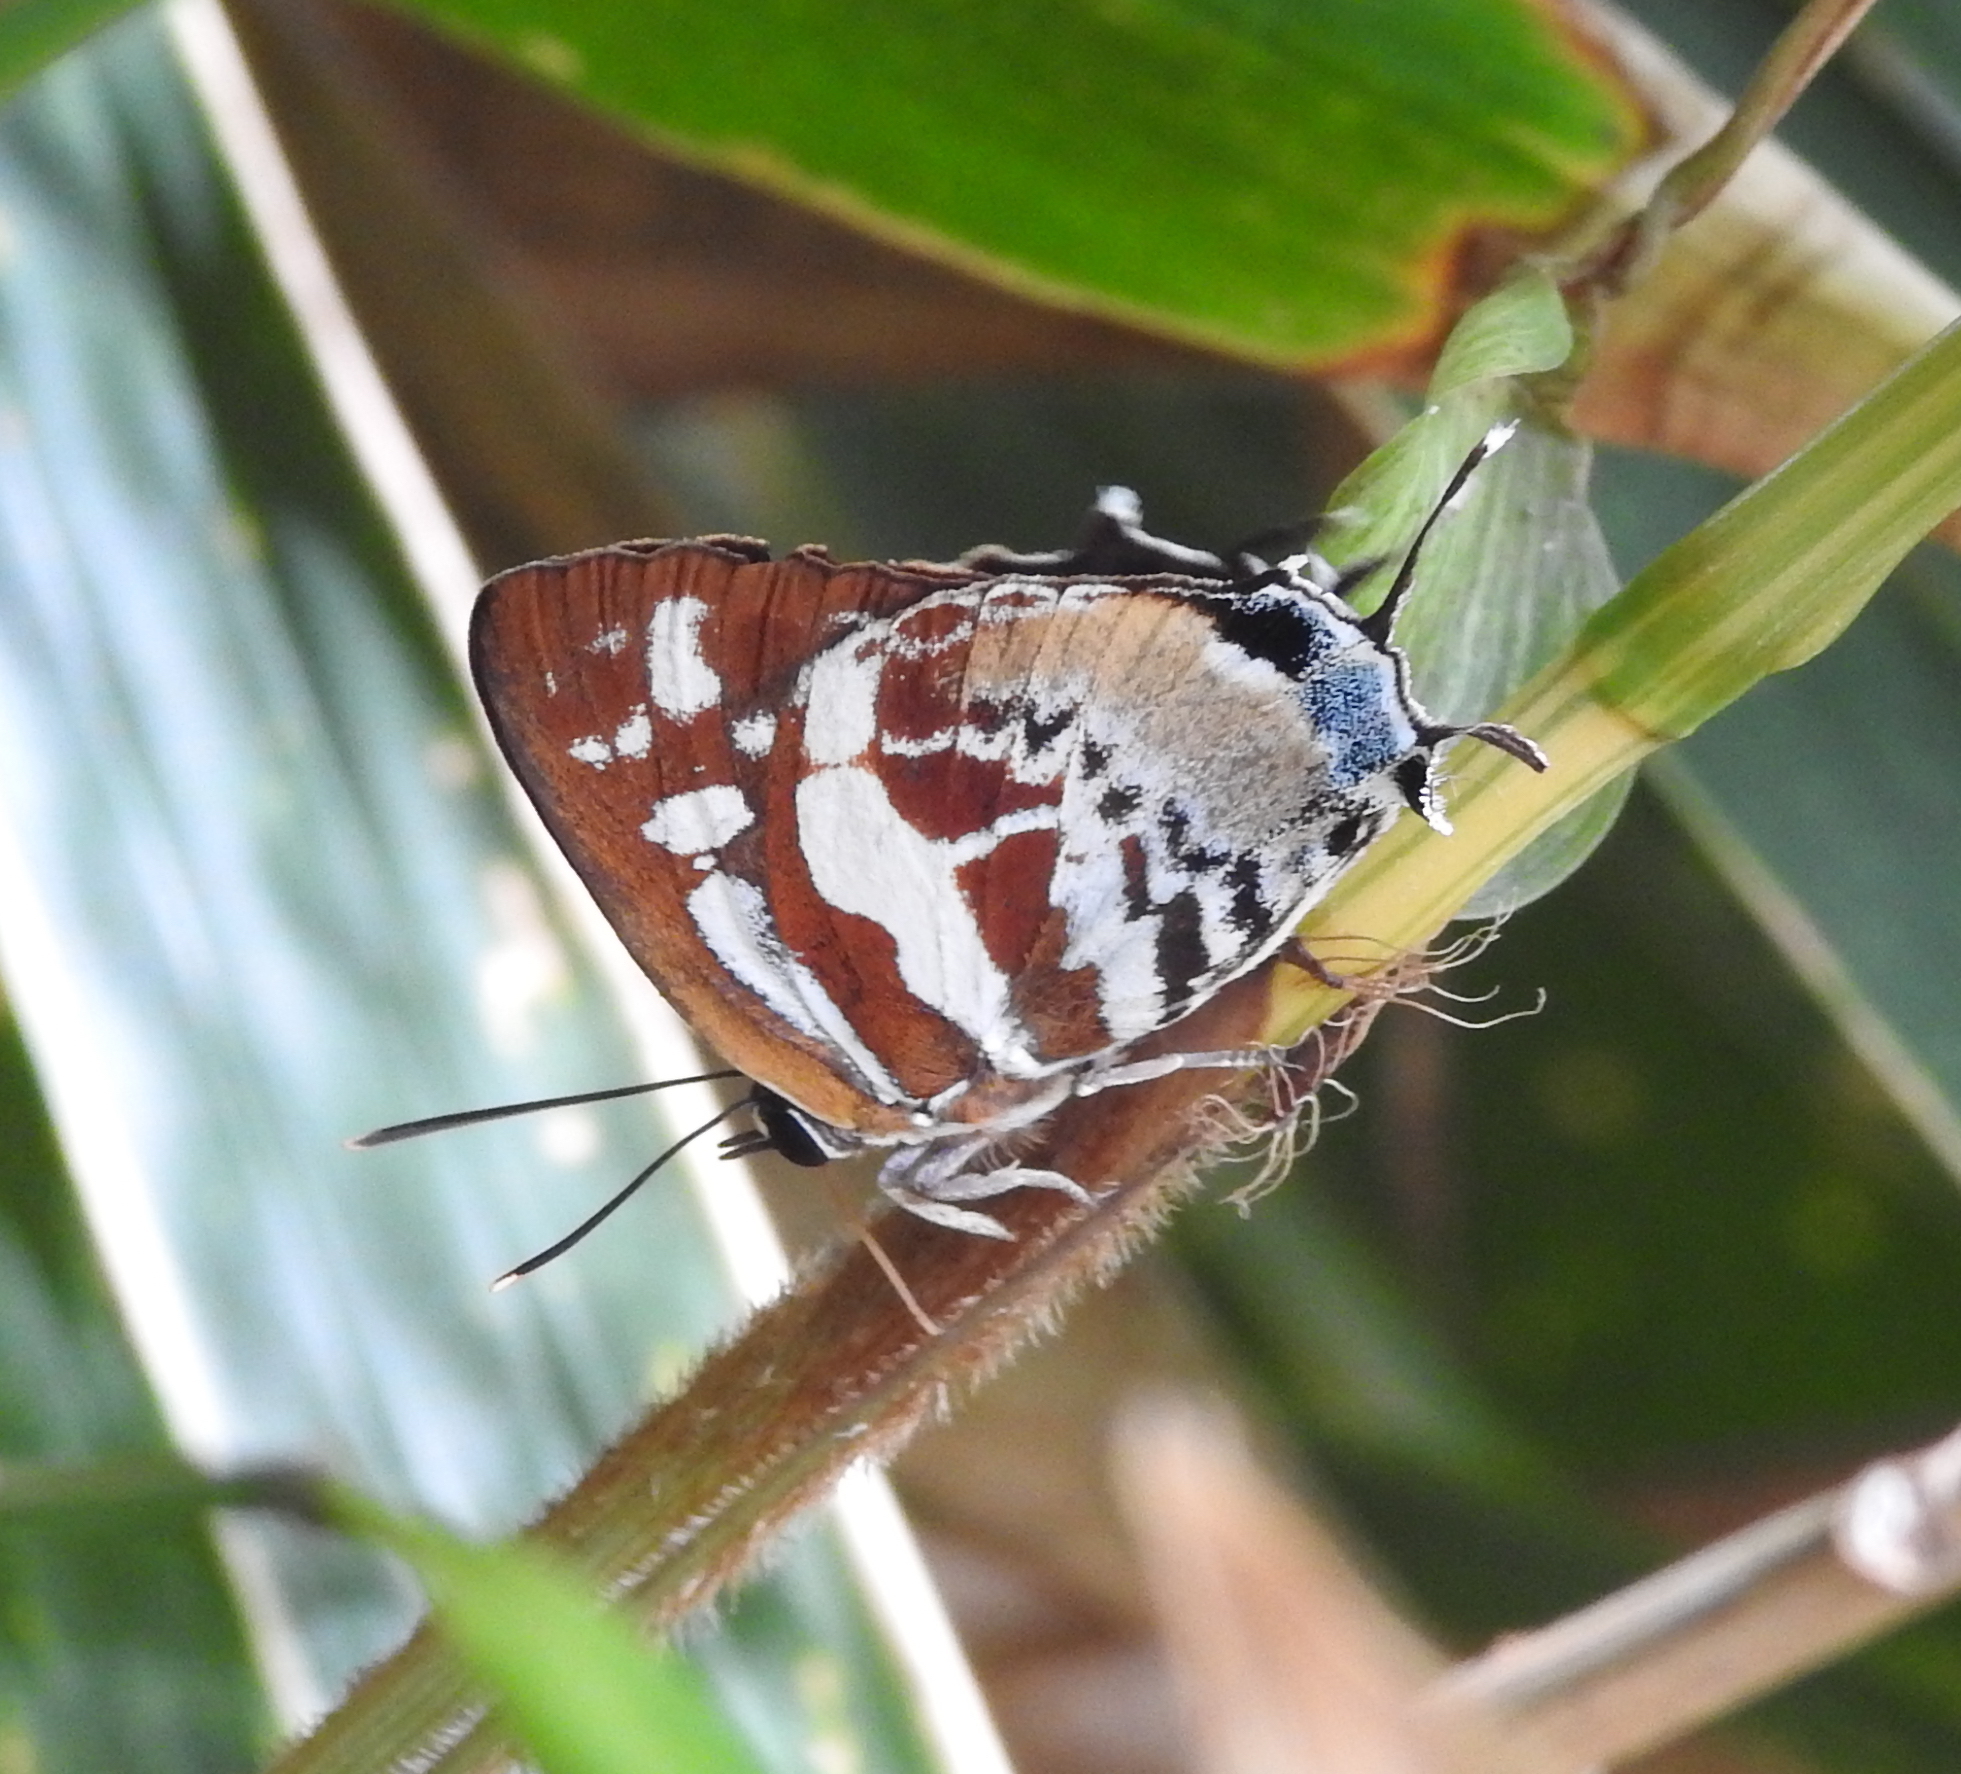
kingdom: Animalia
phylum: Arthropoda
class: Insecta
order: Lepidoptera
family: Lycaenidae
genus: Iraota
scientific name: Iraota rochana
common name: Scarce silverstreak blue
